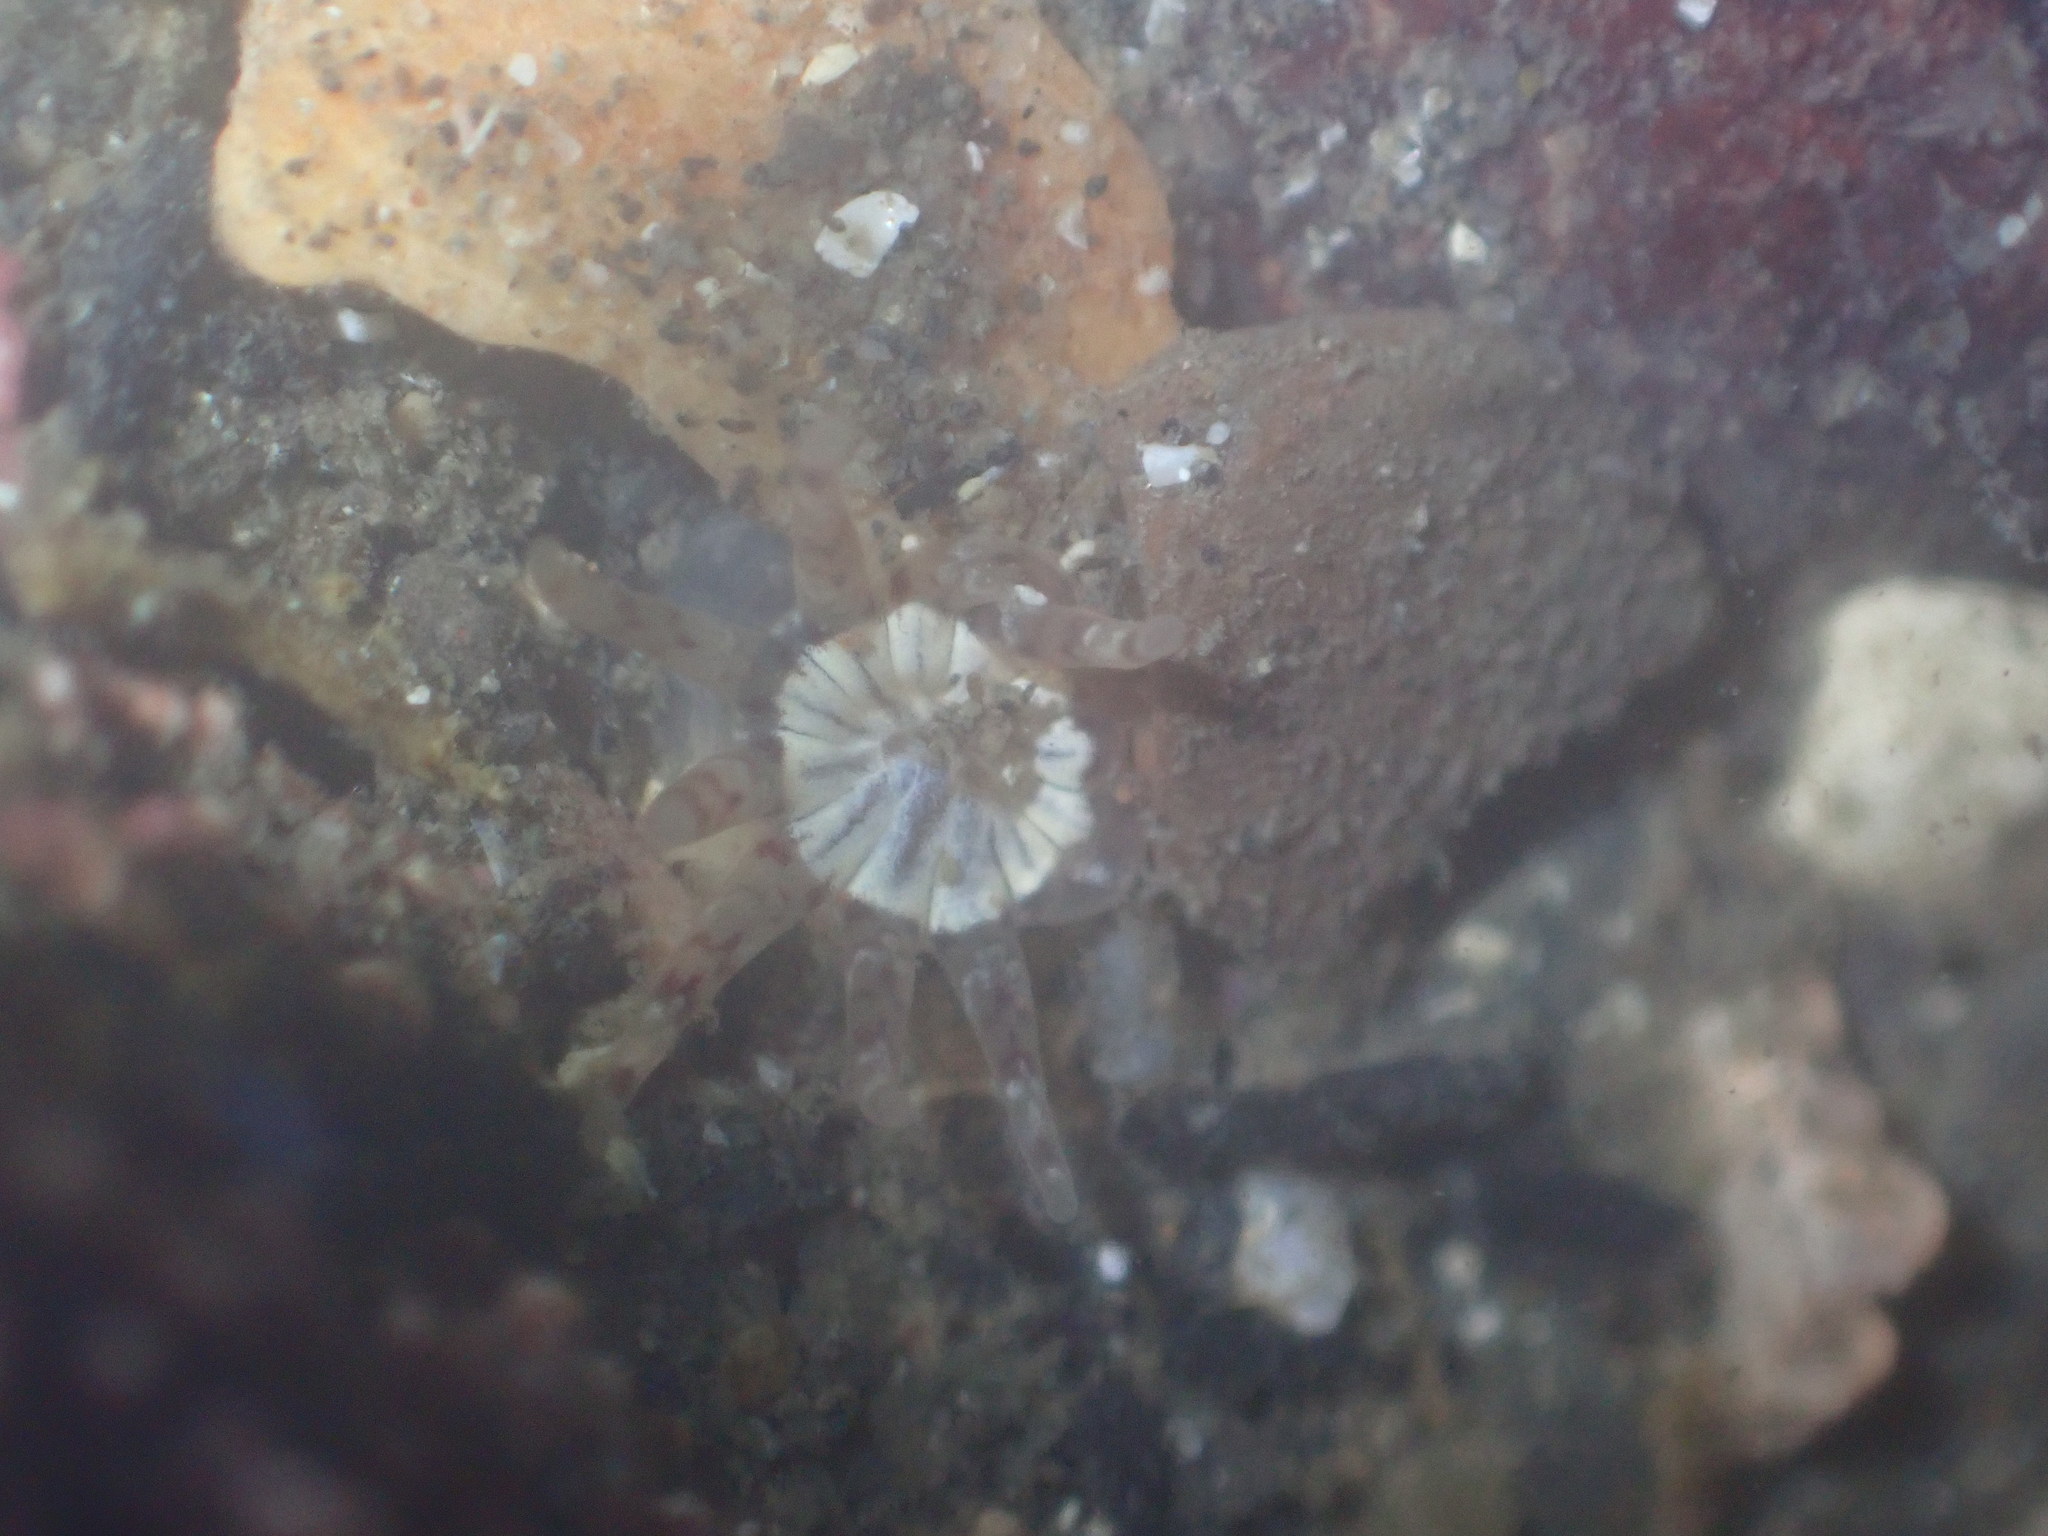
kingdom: Animalia
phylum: Cnidaria
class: Anthozoa
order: Actiniaria
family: Halcampidae
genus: Halcampa
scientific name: Halcampa crypta
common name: Cryptic burrowing anemone
